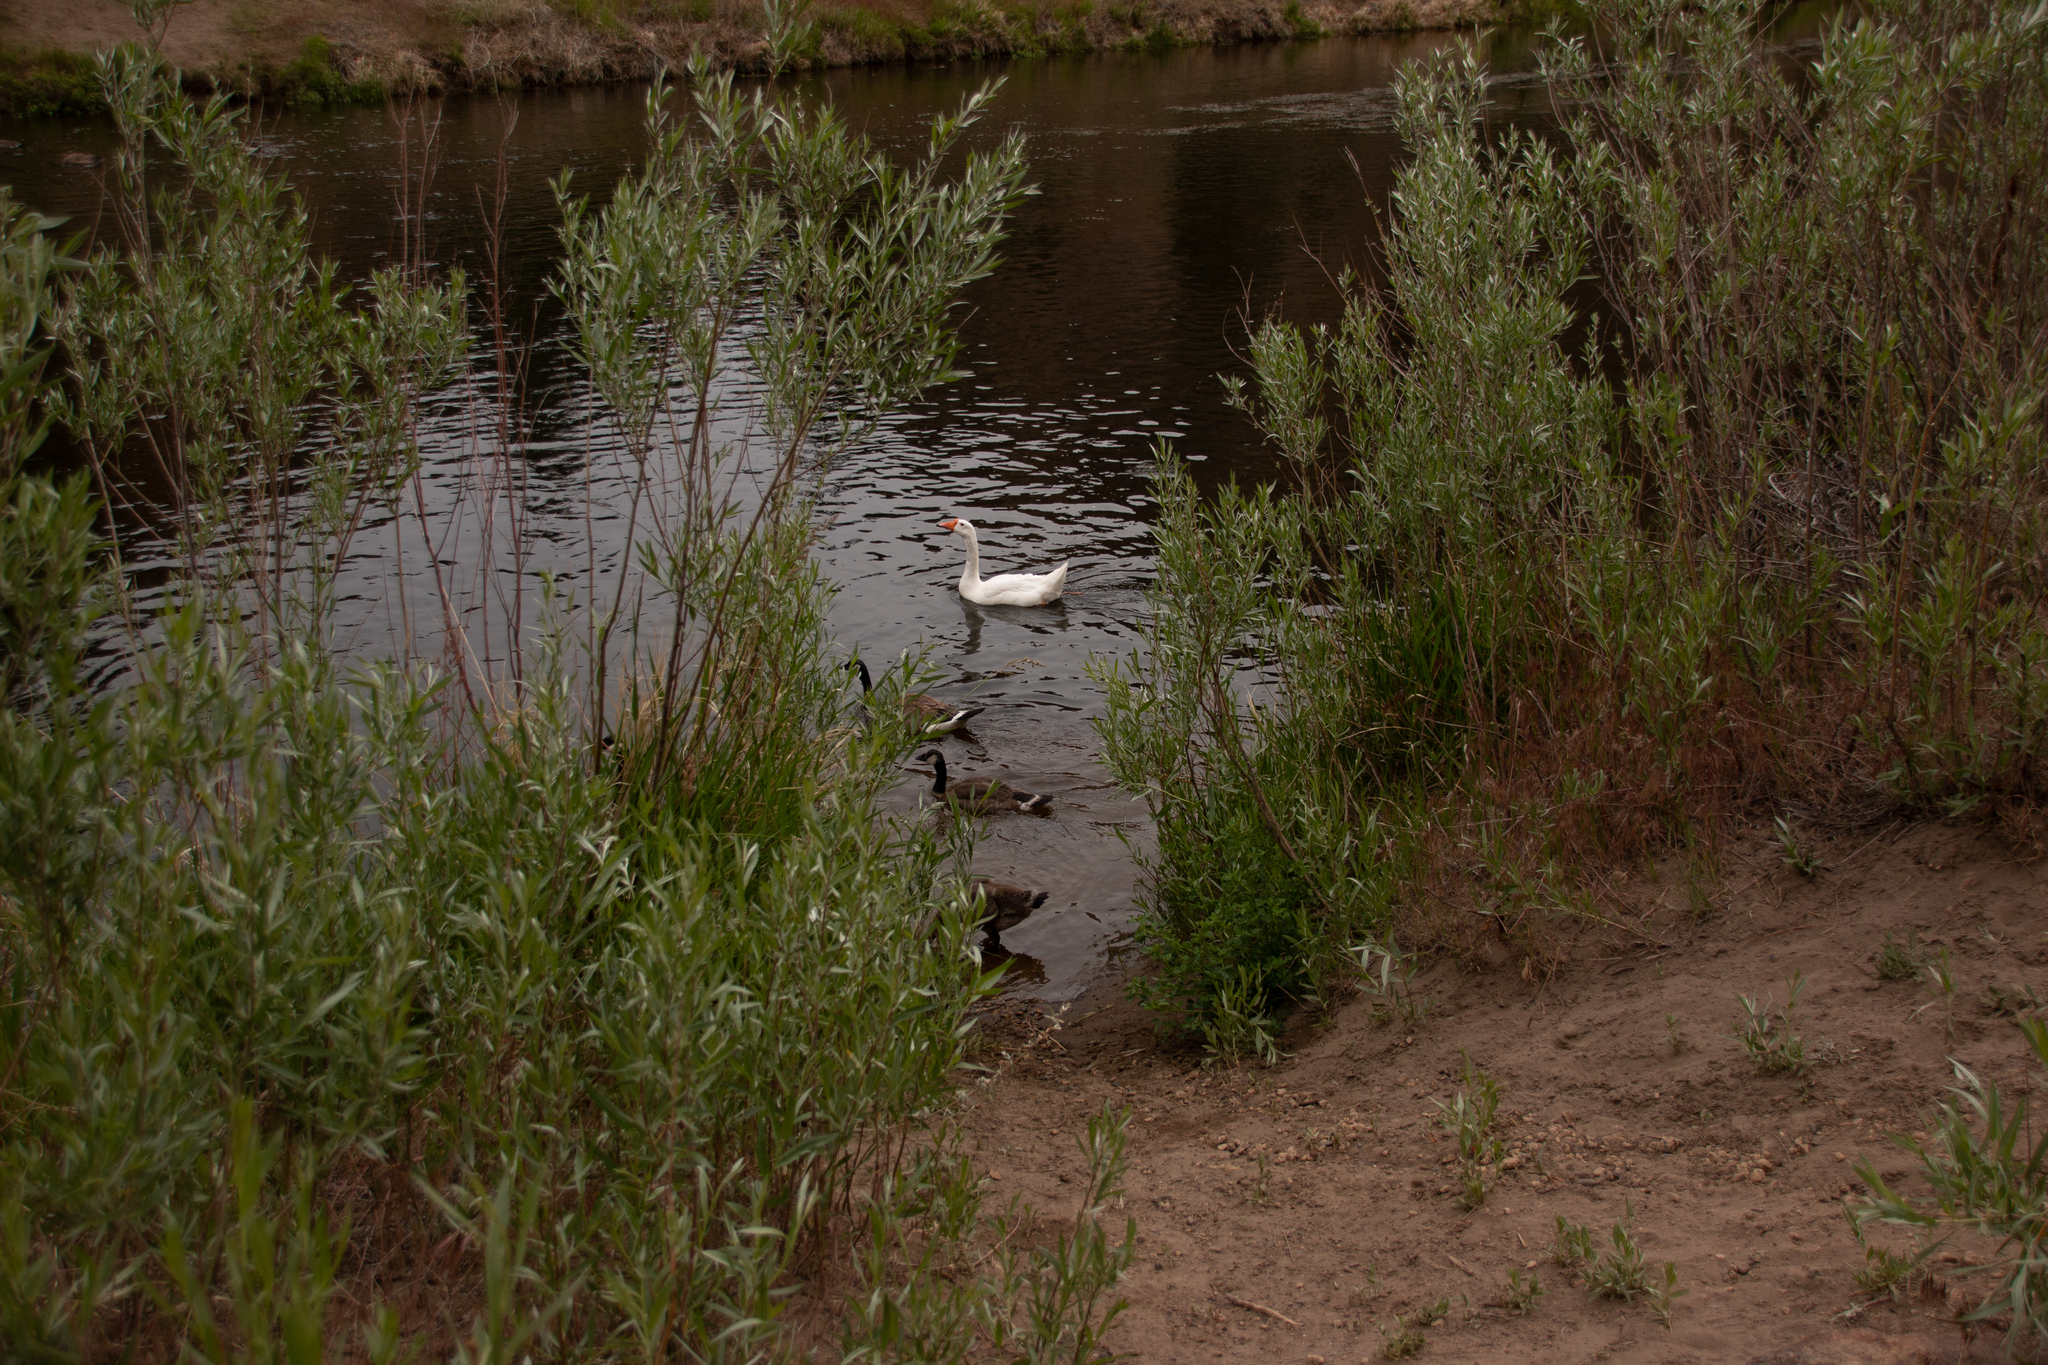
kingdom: Animalia
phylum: Chordata
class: Aves
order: Anseriformes
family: Anatidae
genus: Branta
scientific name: Branta canadensis
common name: Canada goose
